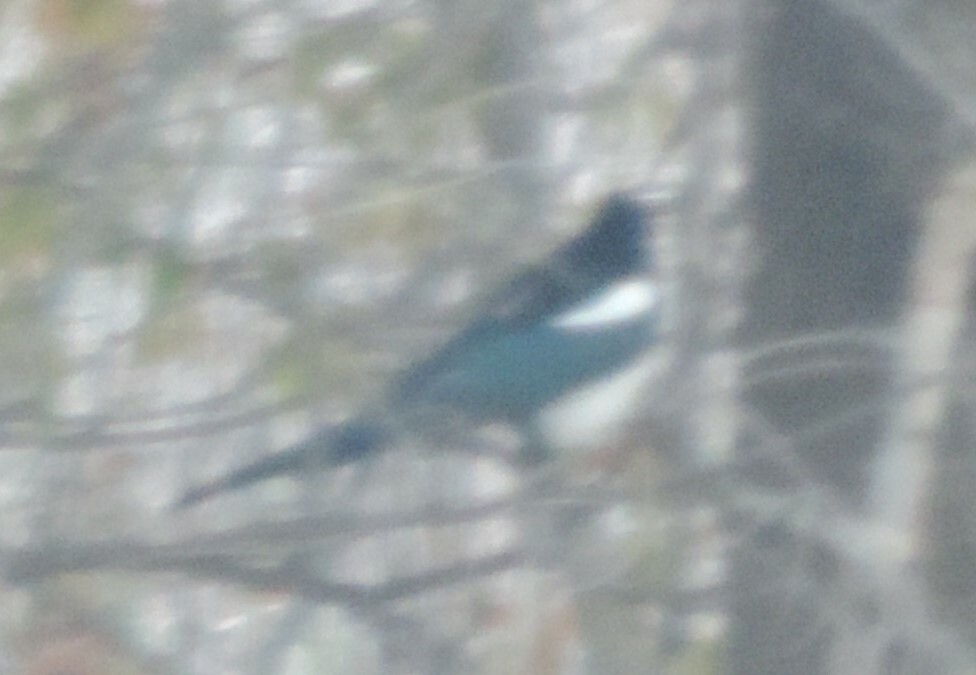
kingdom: Animalia
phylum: Chordata
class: Aves
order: Passeriformes
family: Corvidae
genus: Pica
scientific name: Pica hudsonia
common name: Black-billed magpie
